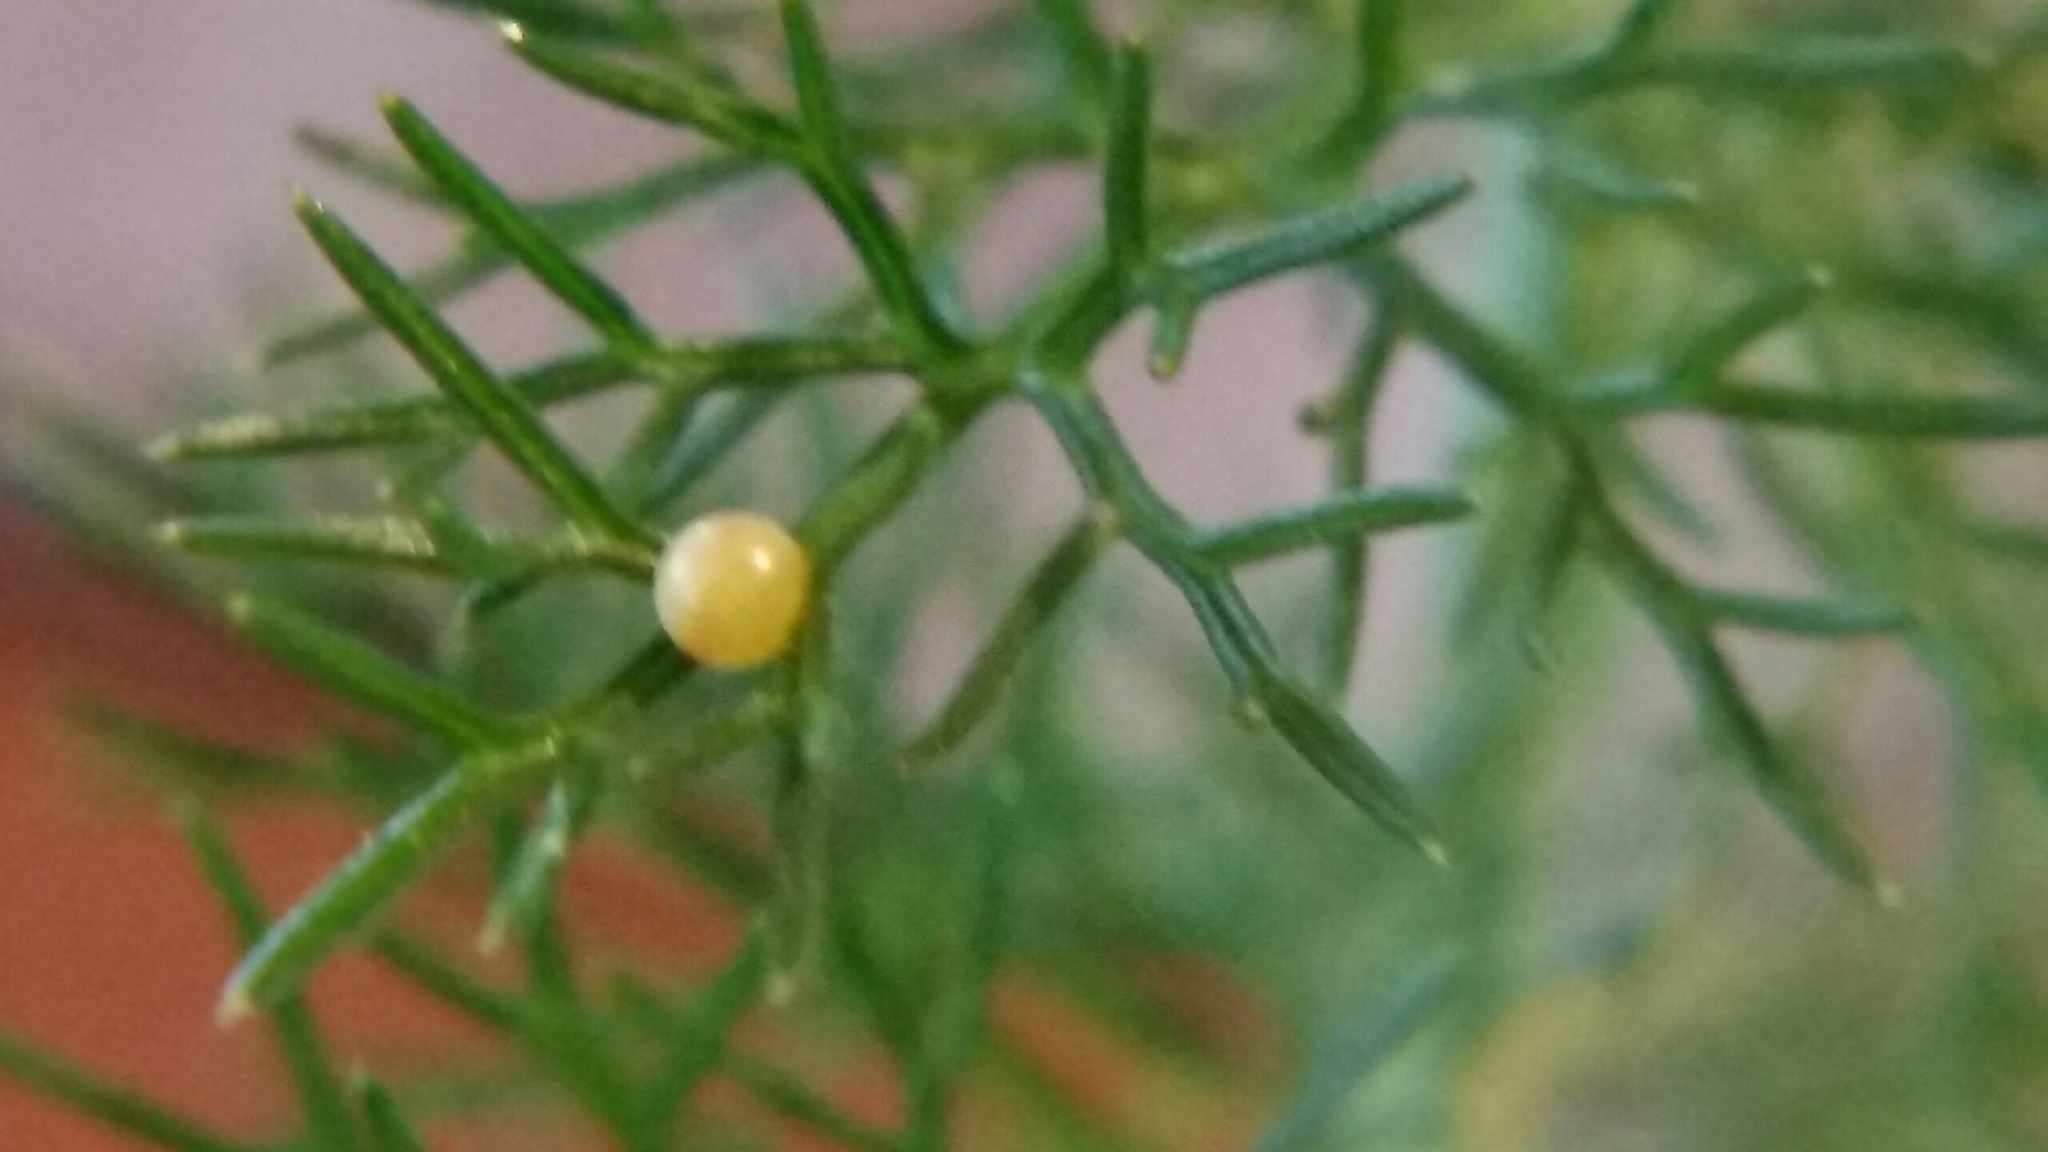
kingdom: Animalia
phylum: Arthropoda
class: Insecta
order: Lepidoptera
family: Papilionidae
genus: Papilio
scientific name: Papilio zelicaon
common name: Anise swallowtail
